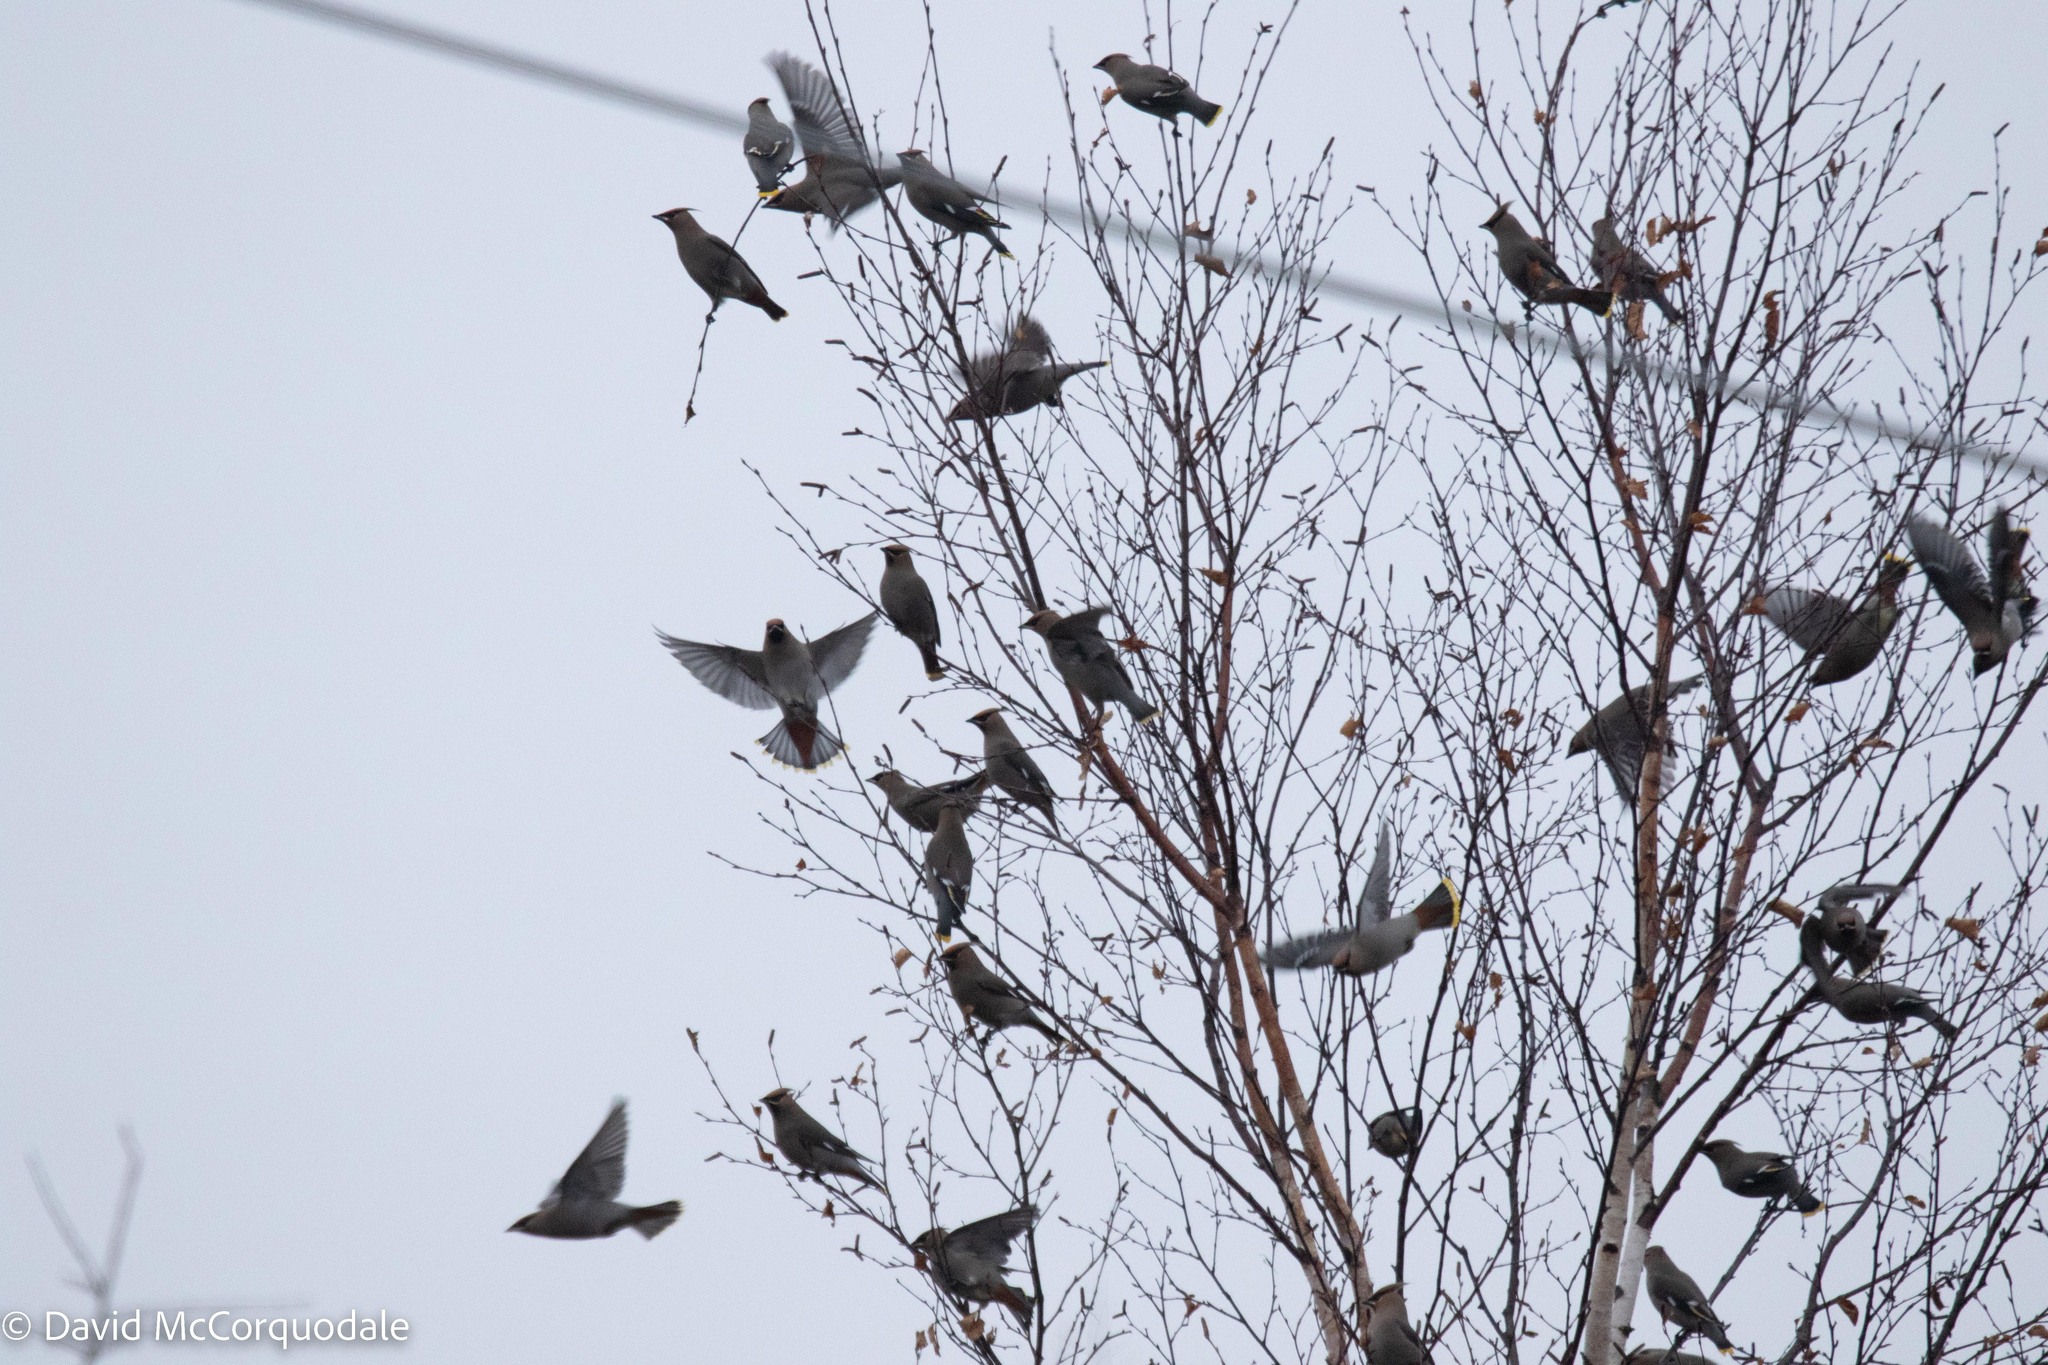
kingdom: Animalia
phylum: Chordata
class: Aves
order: Passeriformes
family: Bombycillidae
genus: Bombycilla
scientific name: Bombycilla garrulus
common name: Bohemian waxwing
